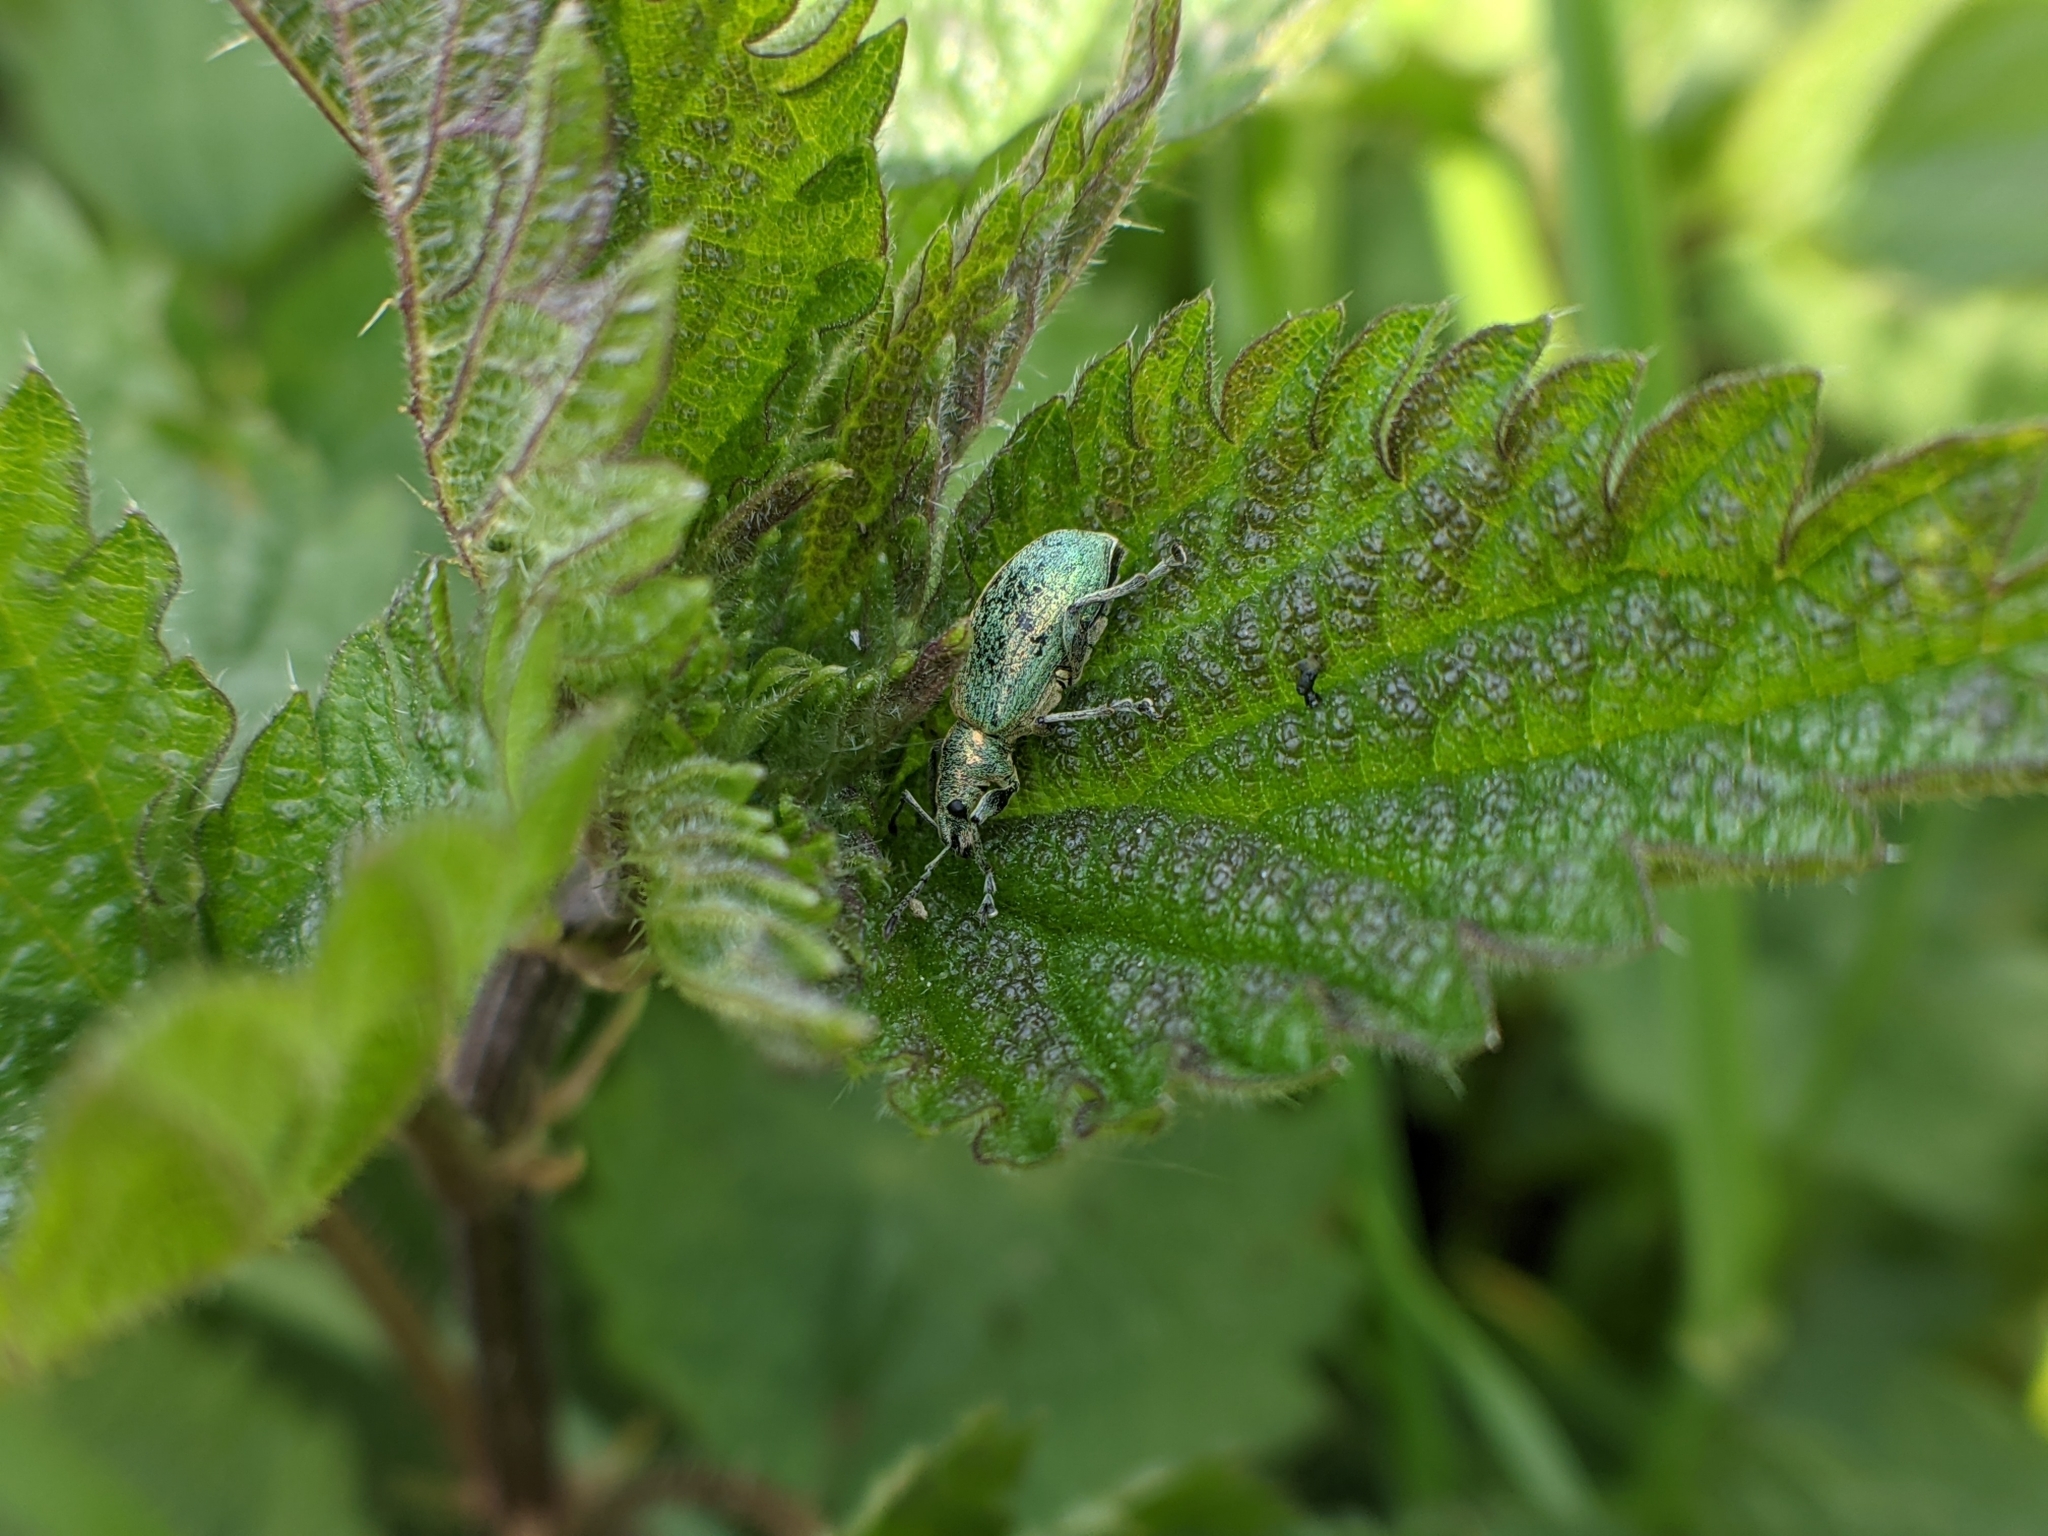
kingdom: Animalia
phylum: Arthropoda
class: Insecta
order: Coleoptera
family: Curculionidae
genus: Phyllobius
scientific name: Phyllobius pomaceus
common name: Green nettle weevil
